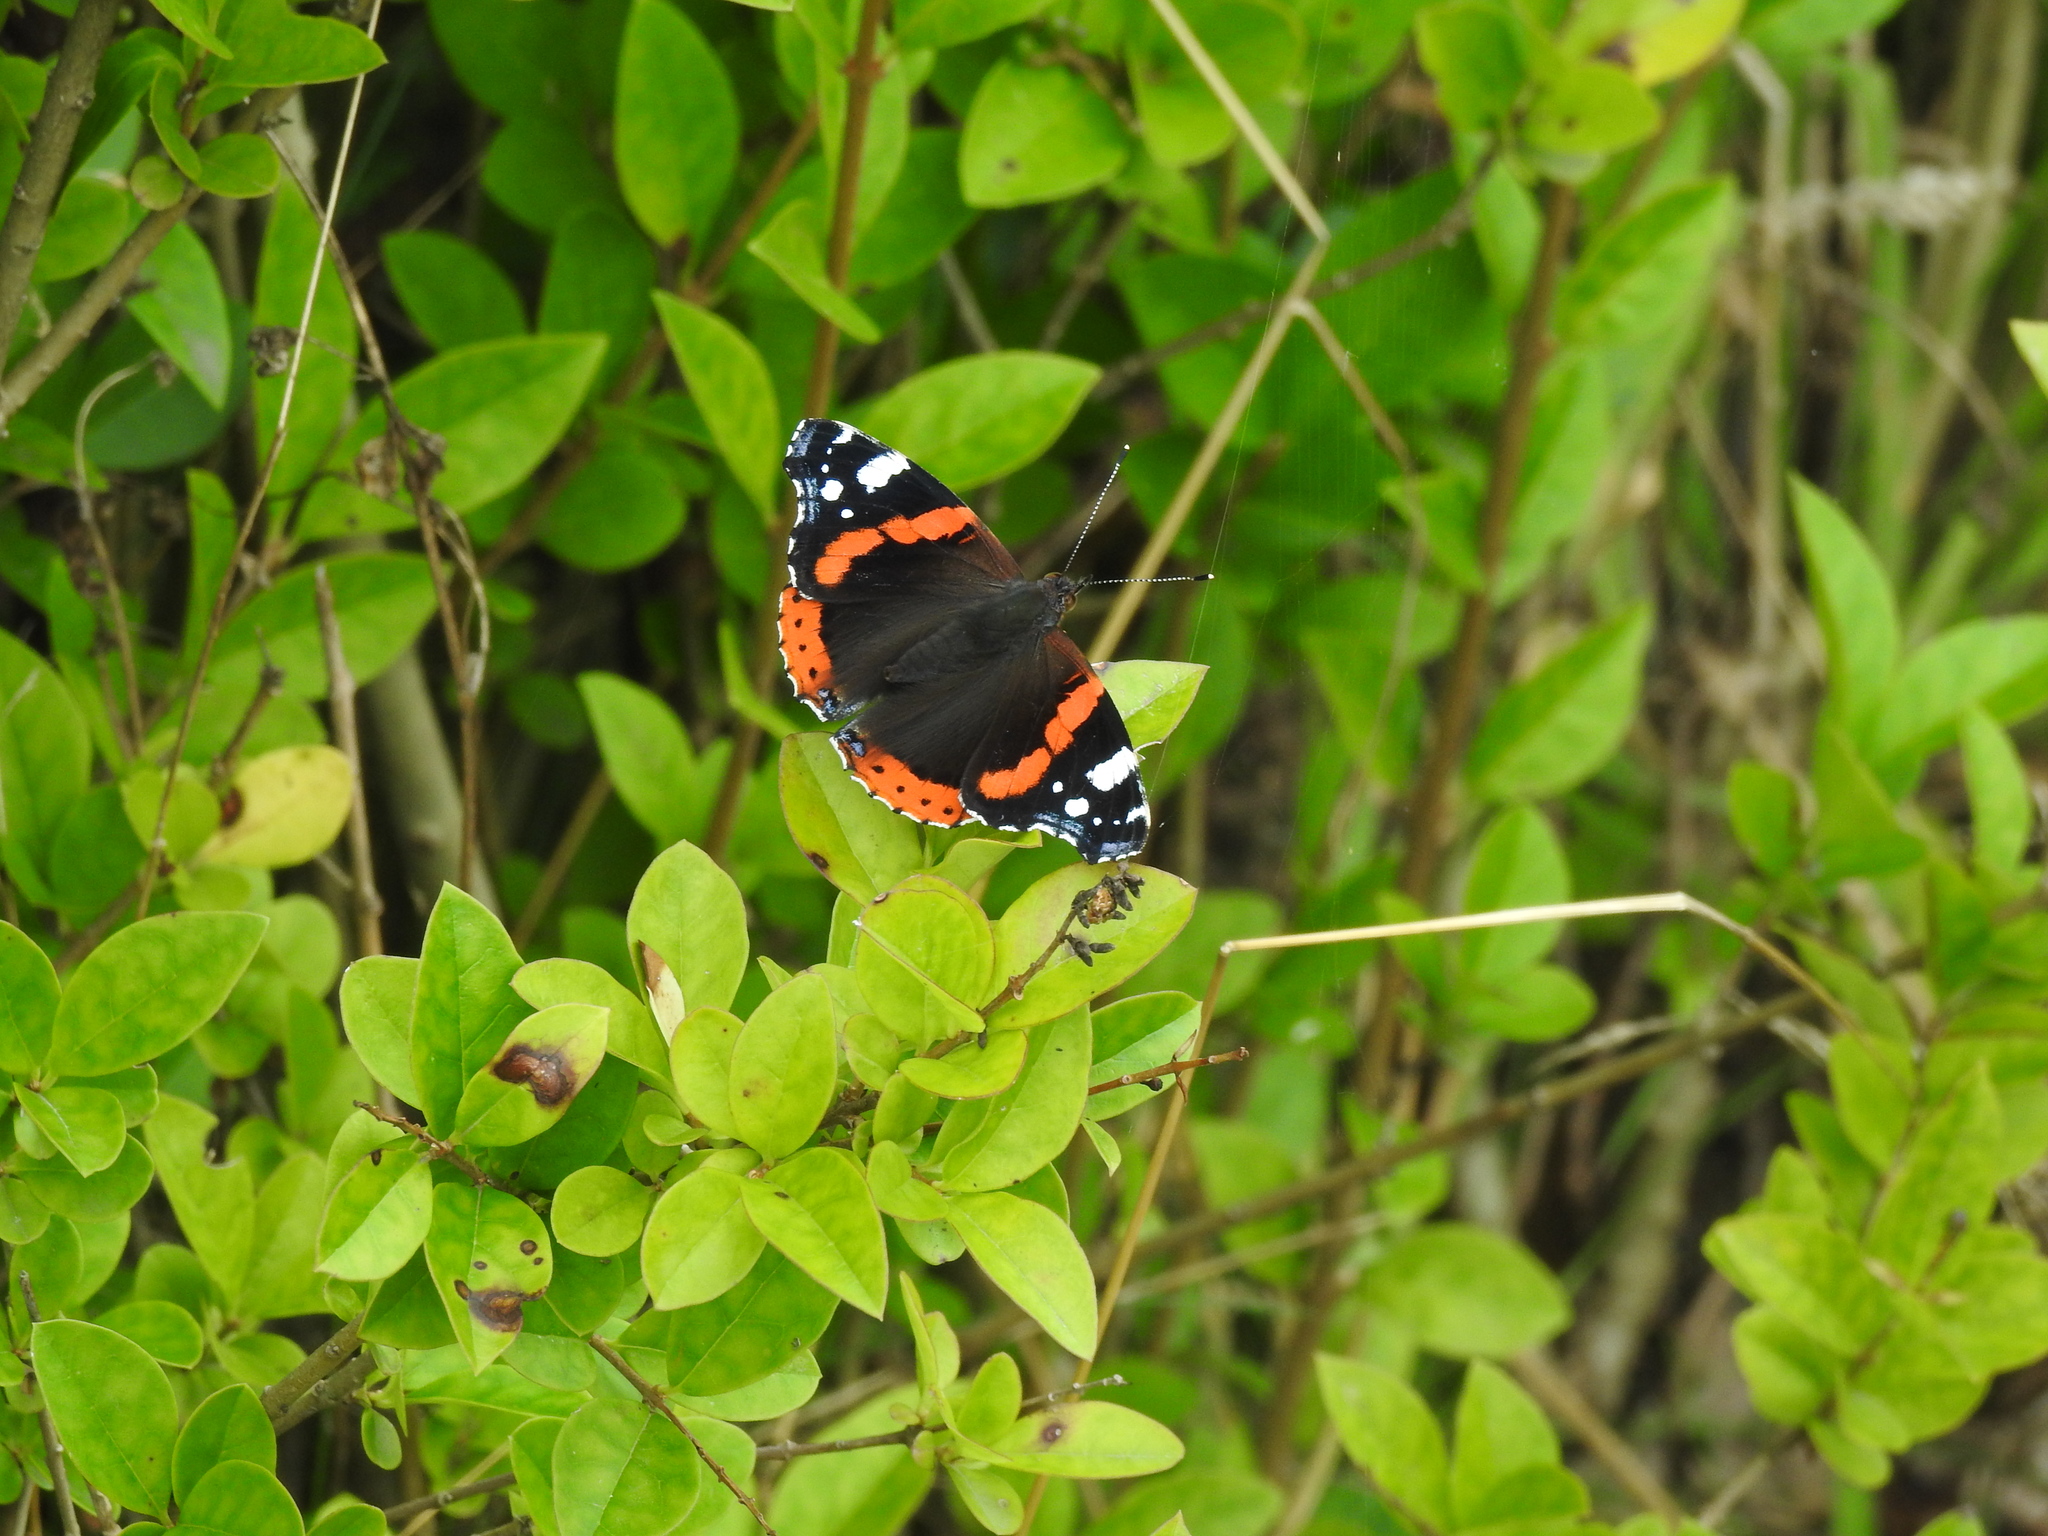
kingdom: Animalia
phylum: Arthropoda
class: Insecta
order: Lepidoptera
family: Nymphalidae
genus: Vanessa
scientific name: Vanessa atalanta
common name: Red admiral
